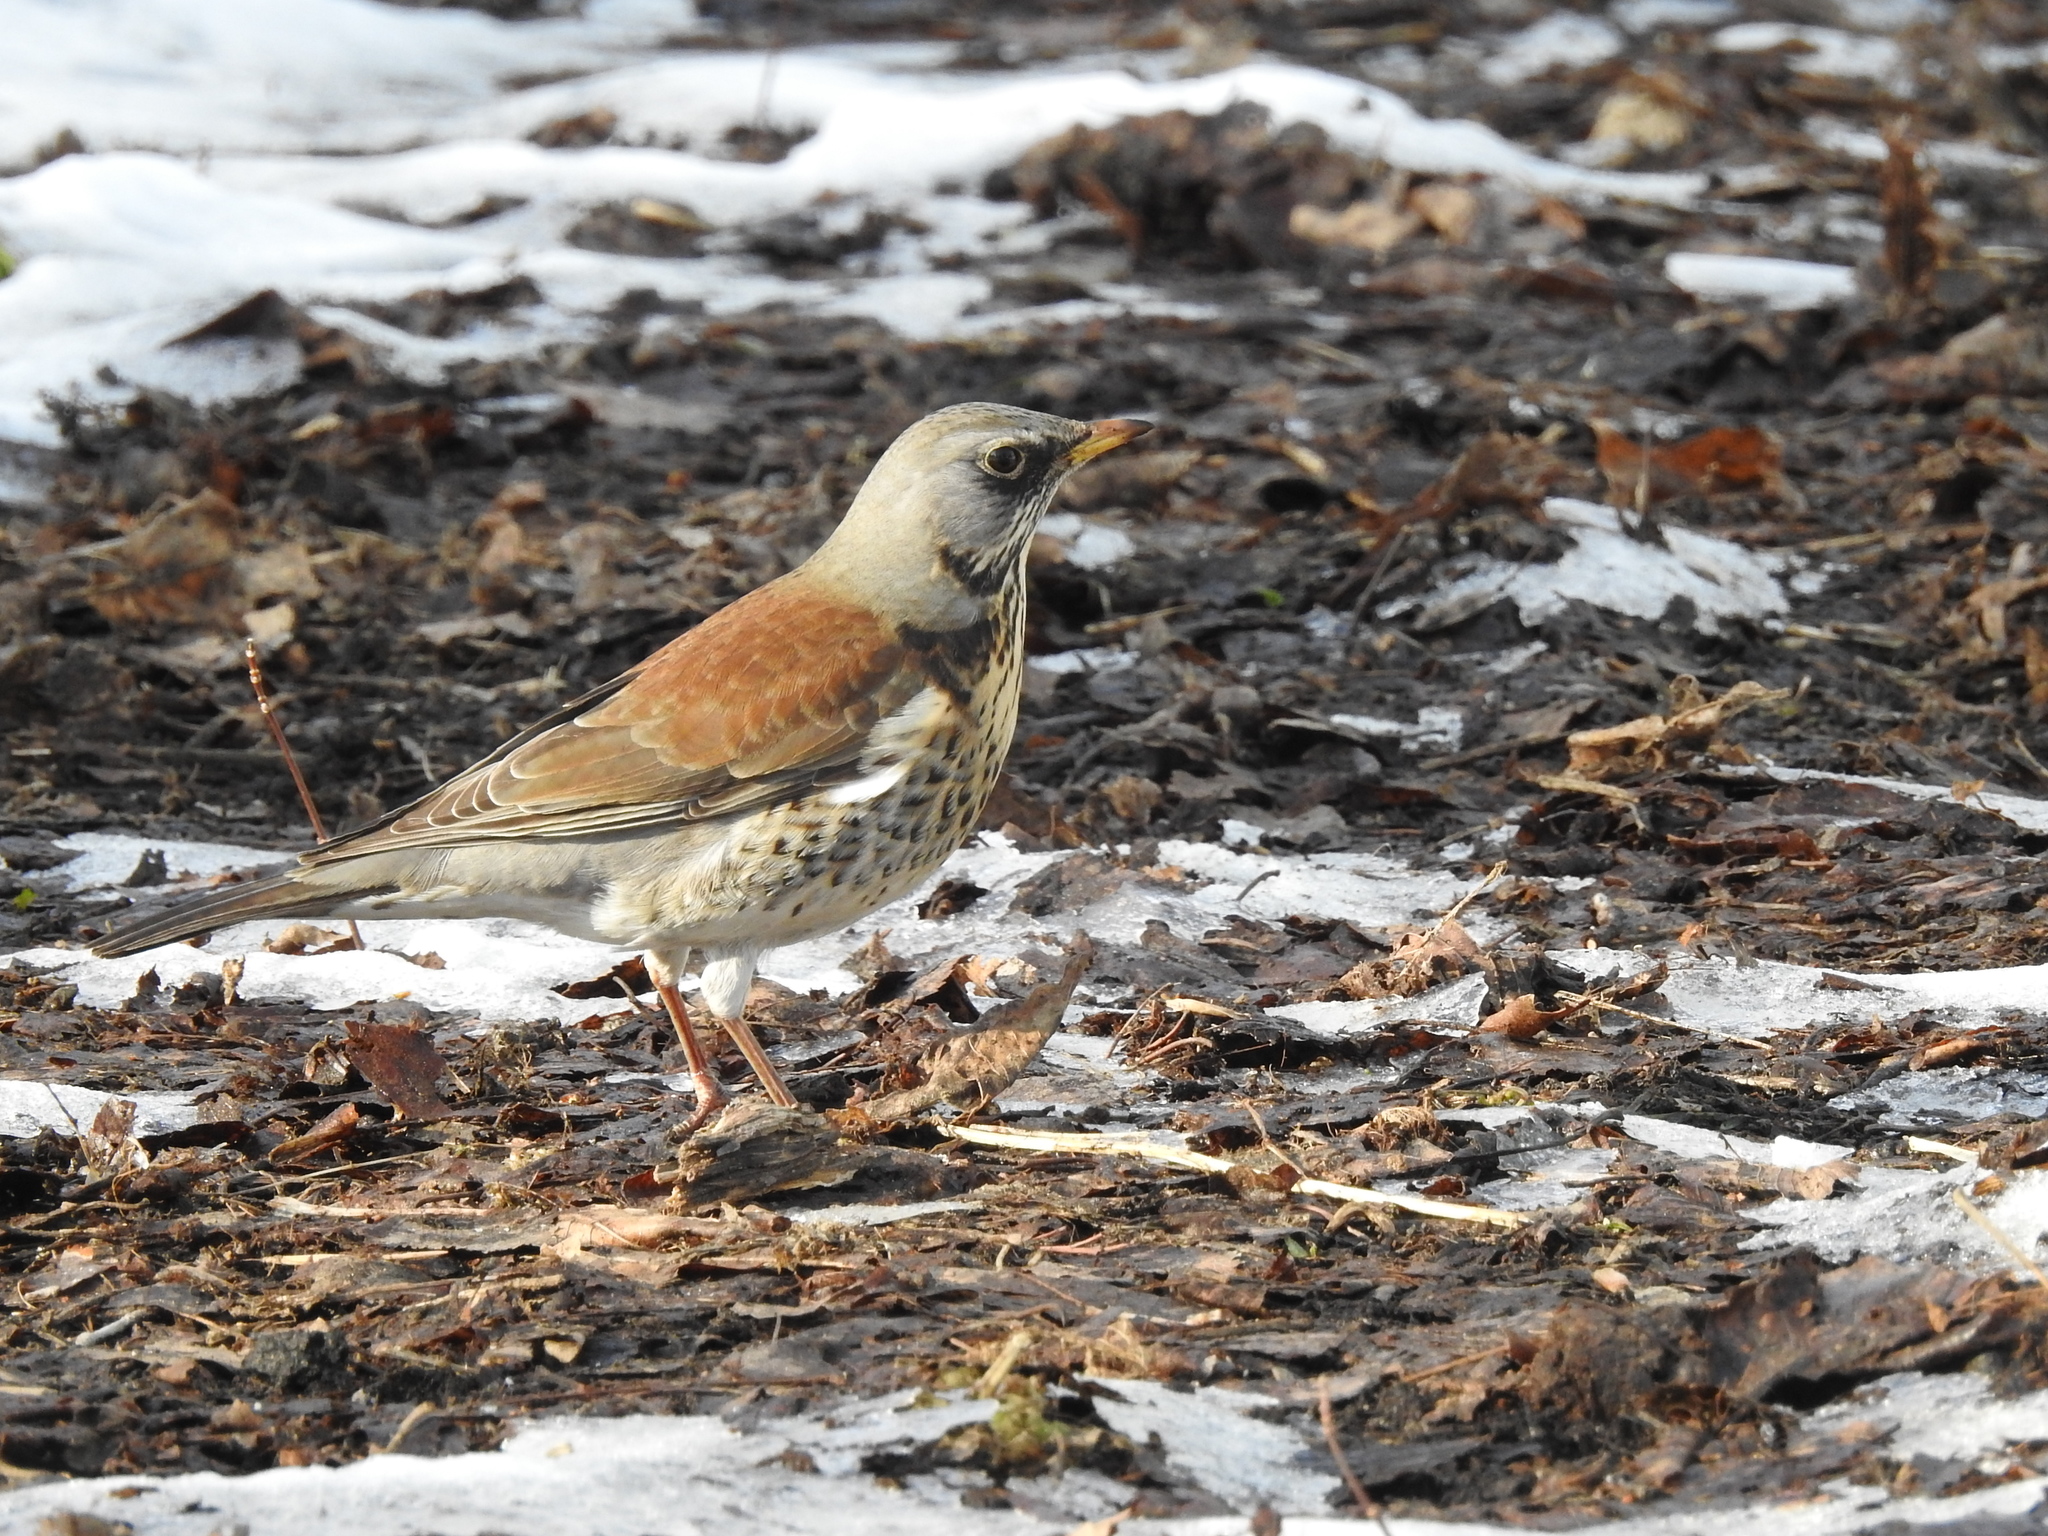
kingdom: Animalia
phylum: Chordata
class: Aves
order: Passeriformes
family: Turdidae
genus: Turdus
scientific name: Turdus pilaris
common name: Fieldfare
